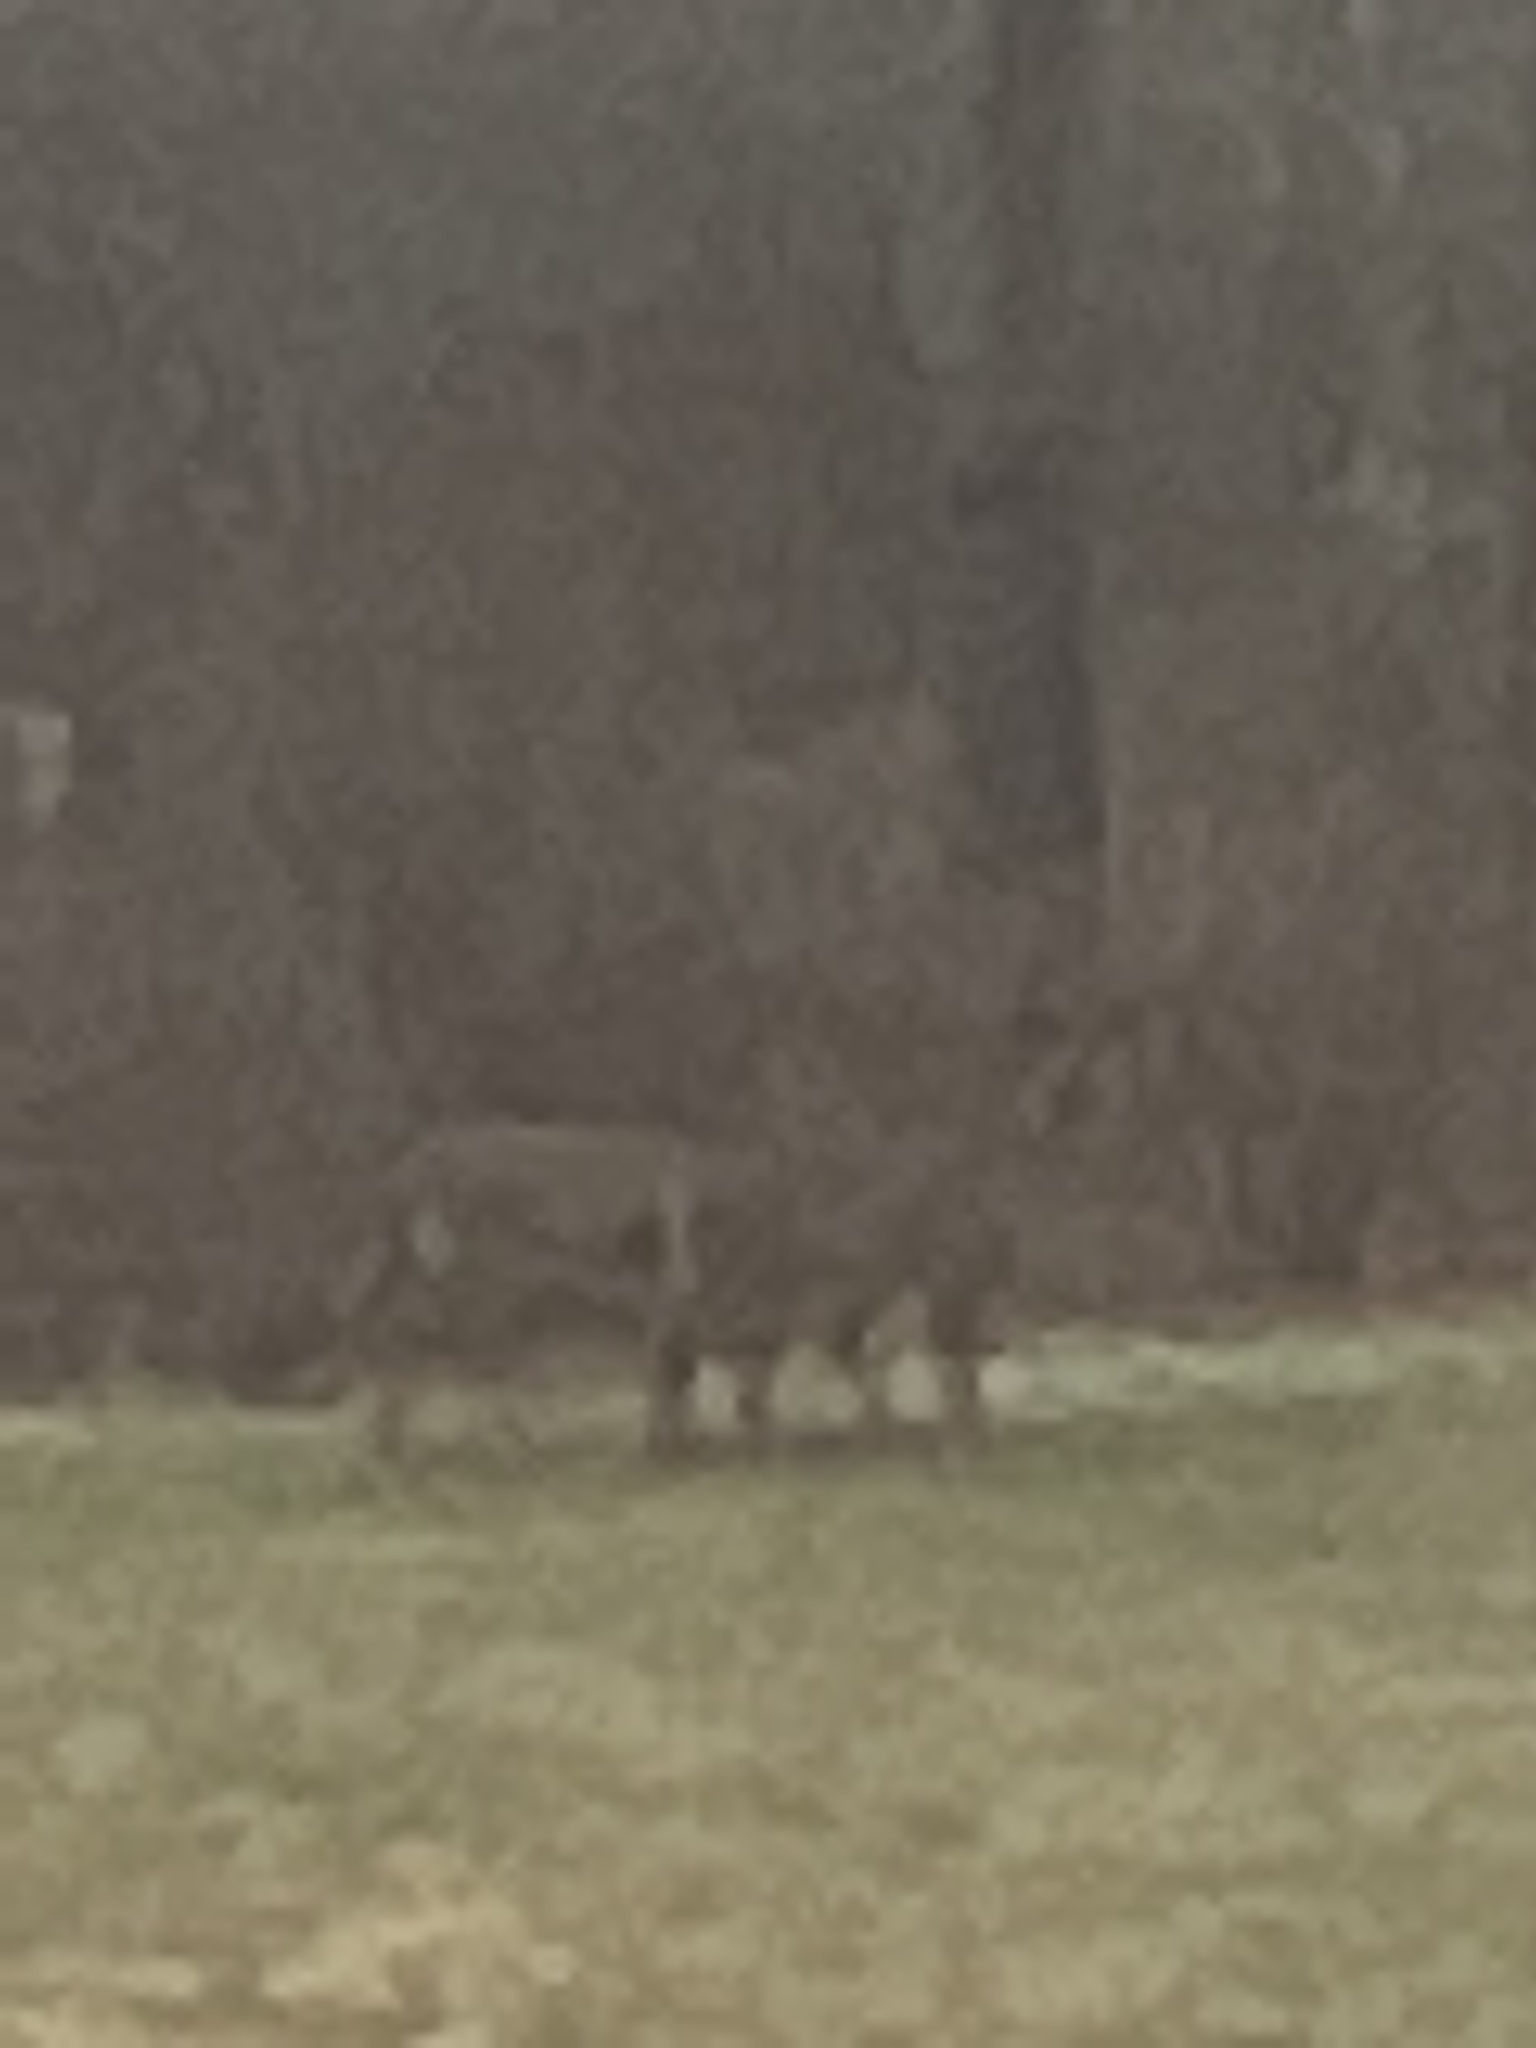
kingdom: Animalia
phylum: Chordata
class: Mammalia
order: Artiodactyla
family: Cervidae
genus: Odocoileus
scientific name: Odocoileus virginianus
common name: White-tailed deer
